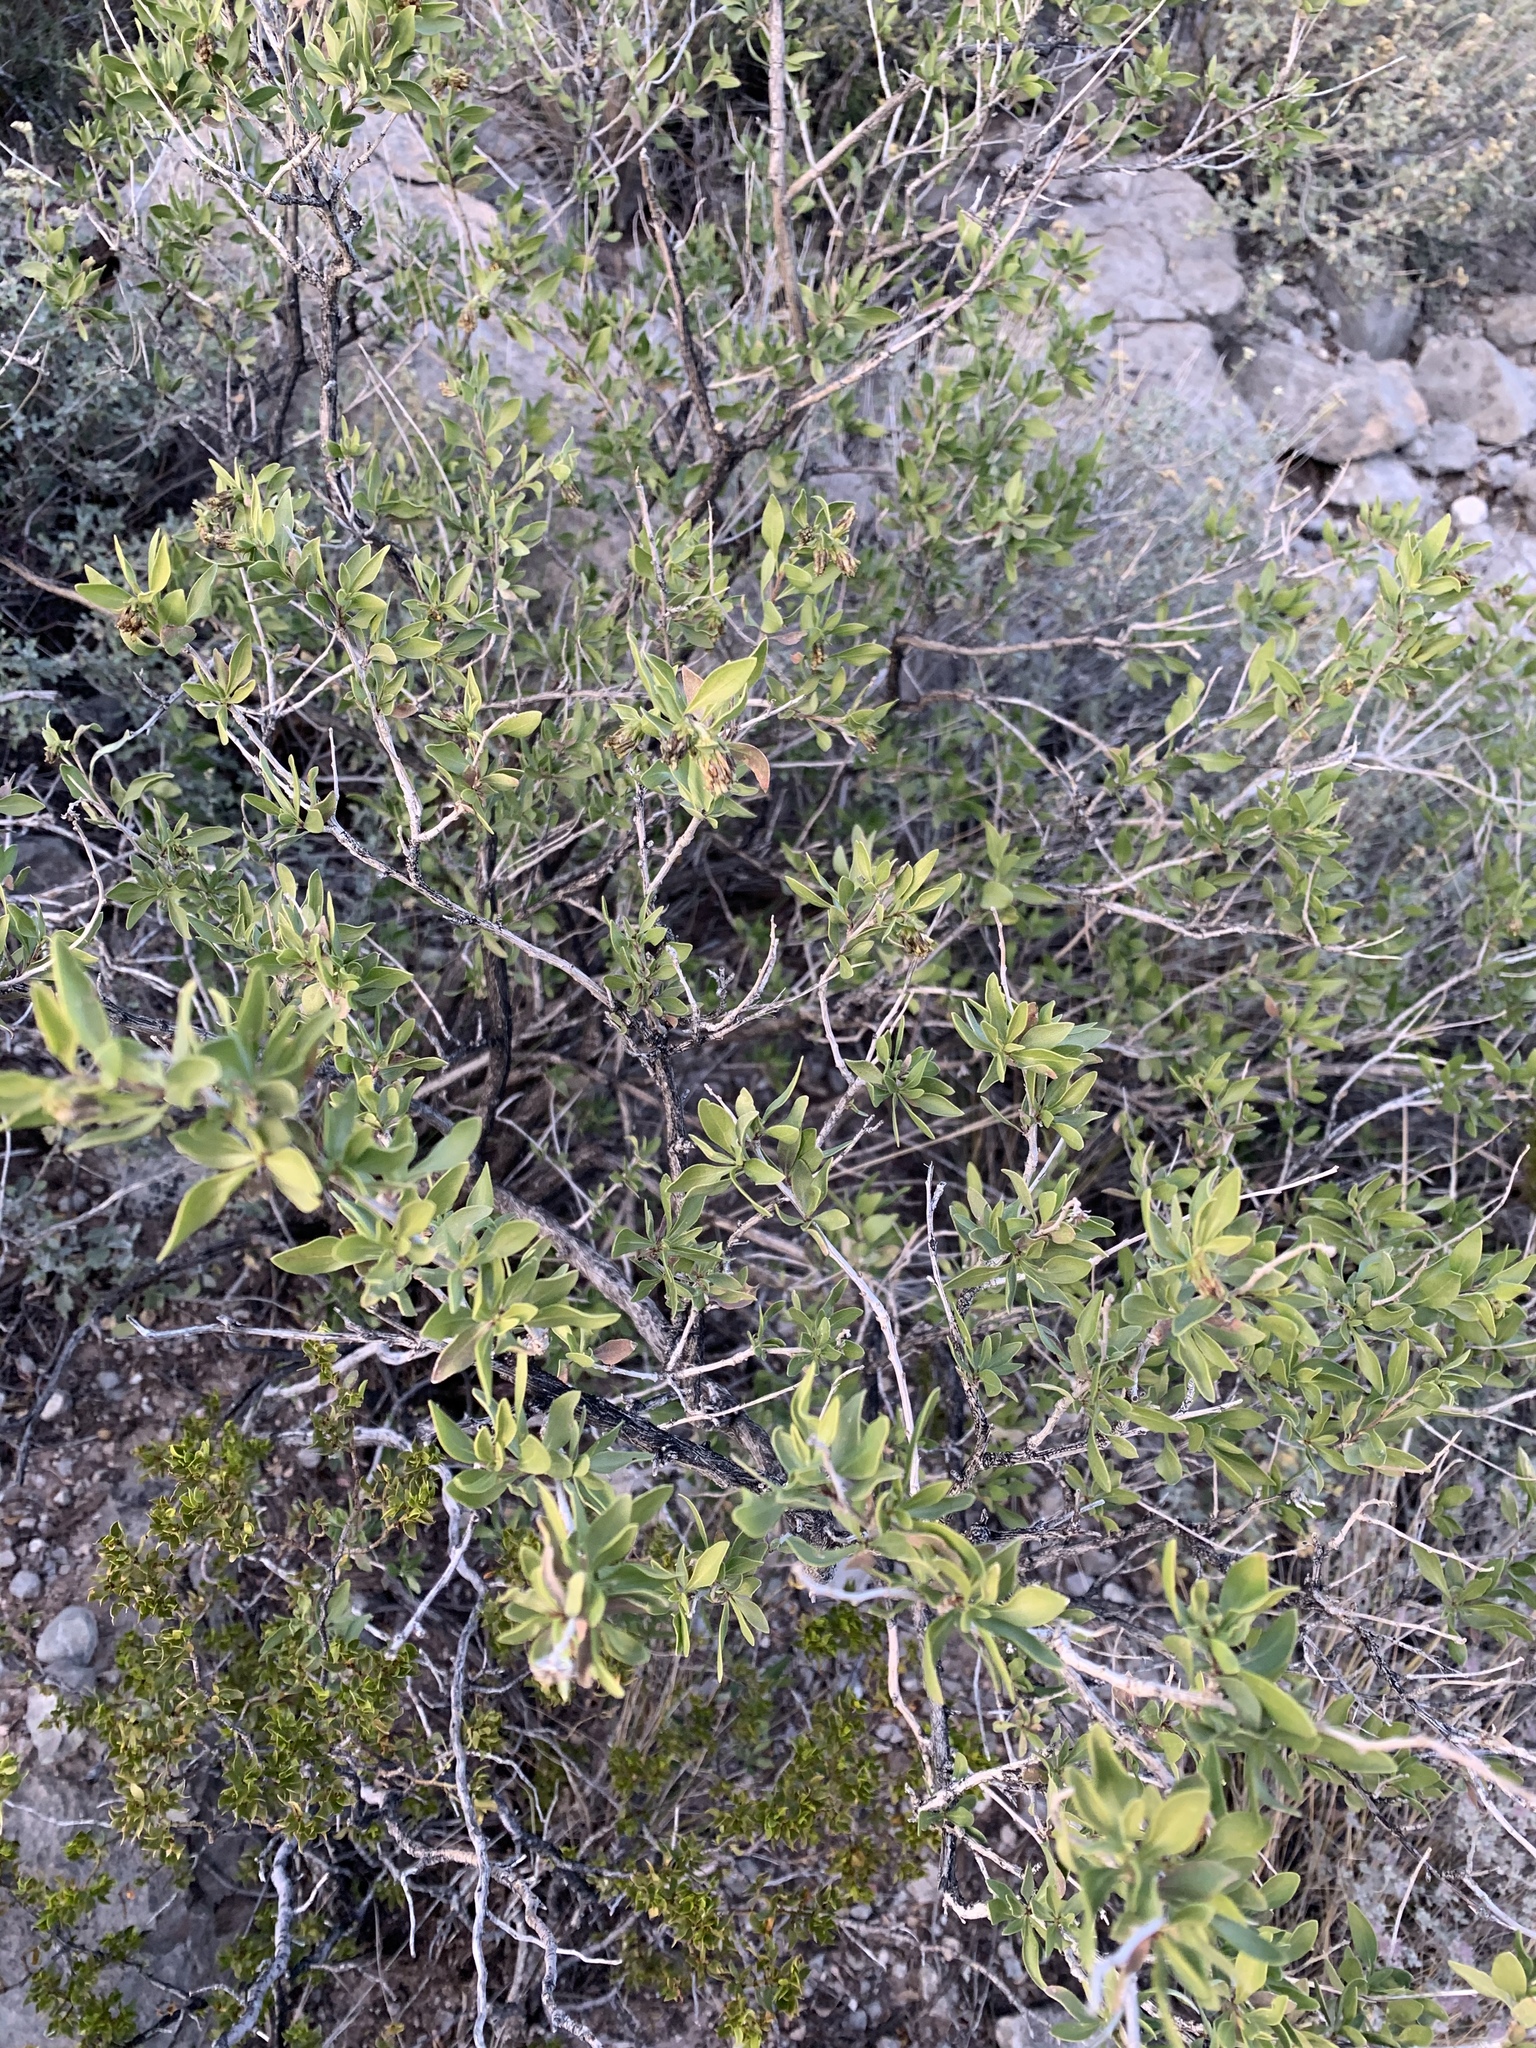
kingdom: Plantae
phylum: Tracheophyta
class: Magnoliopsida
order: Asterales
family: Asteraceae
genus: Flourensia
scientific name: Flourensia cernua
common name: Varnishbush
